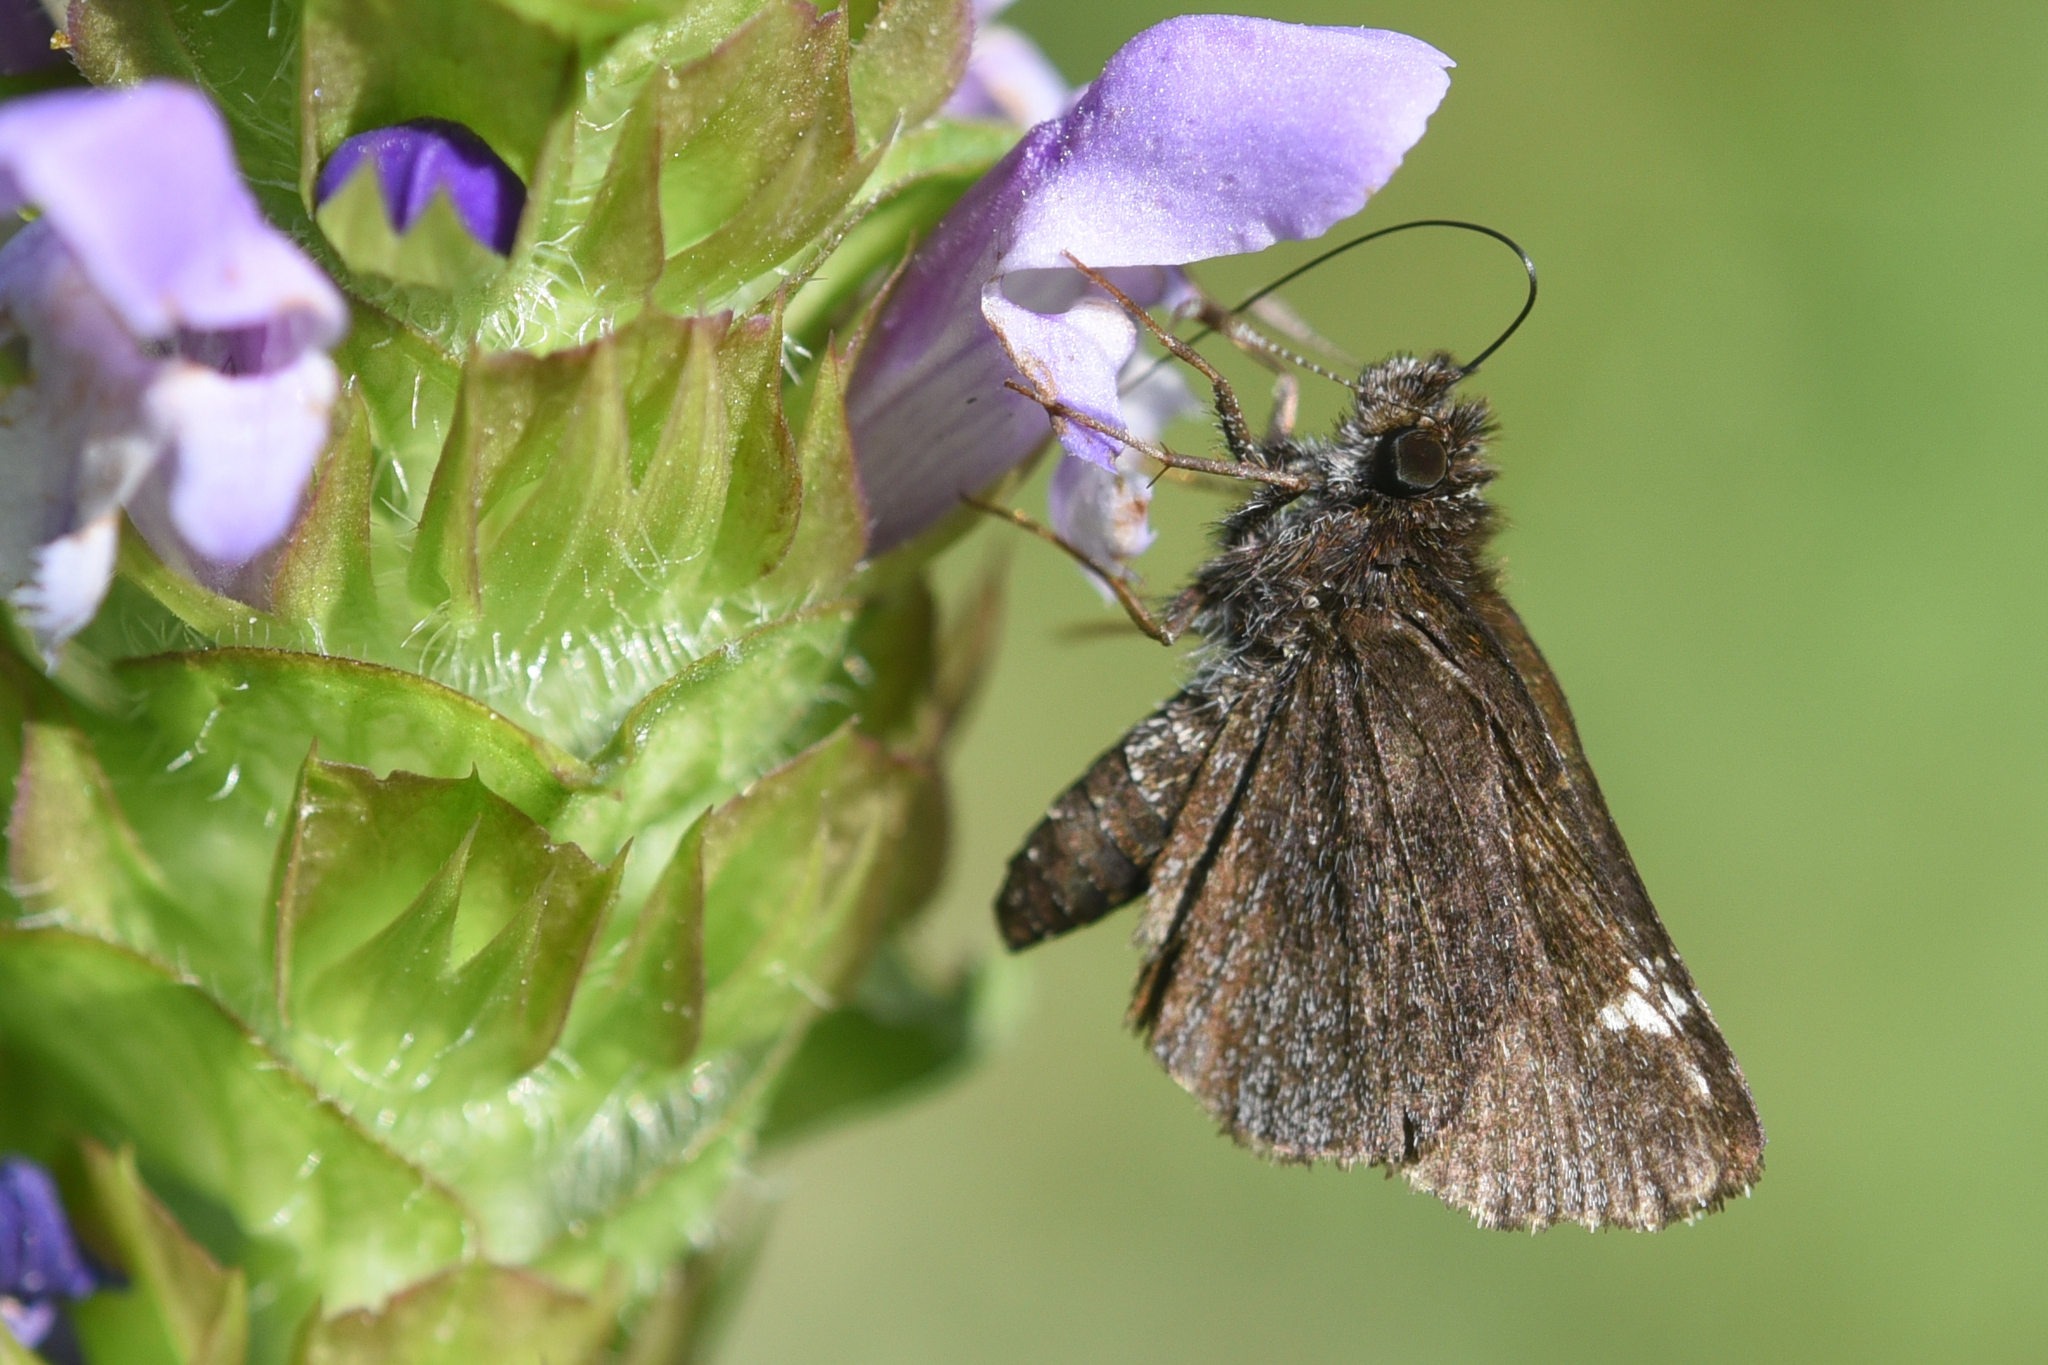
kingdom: Animalia
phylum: Arthropoda
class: Insecta
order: Lepidoptera
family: Hesperiidae
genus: Mastor
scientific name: Mastor vialis
